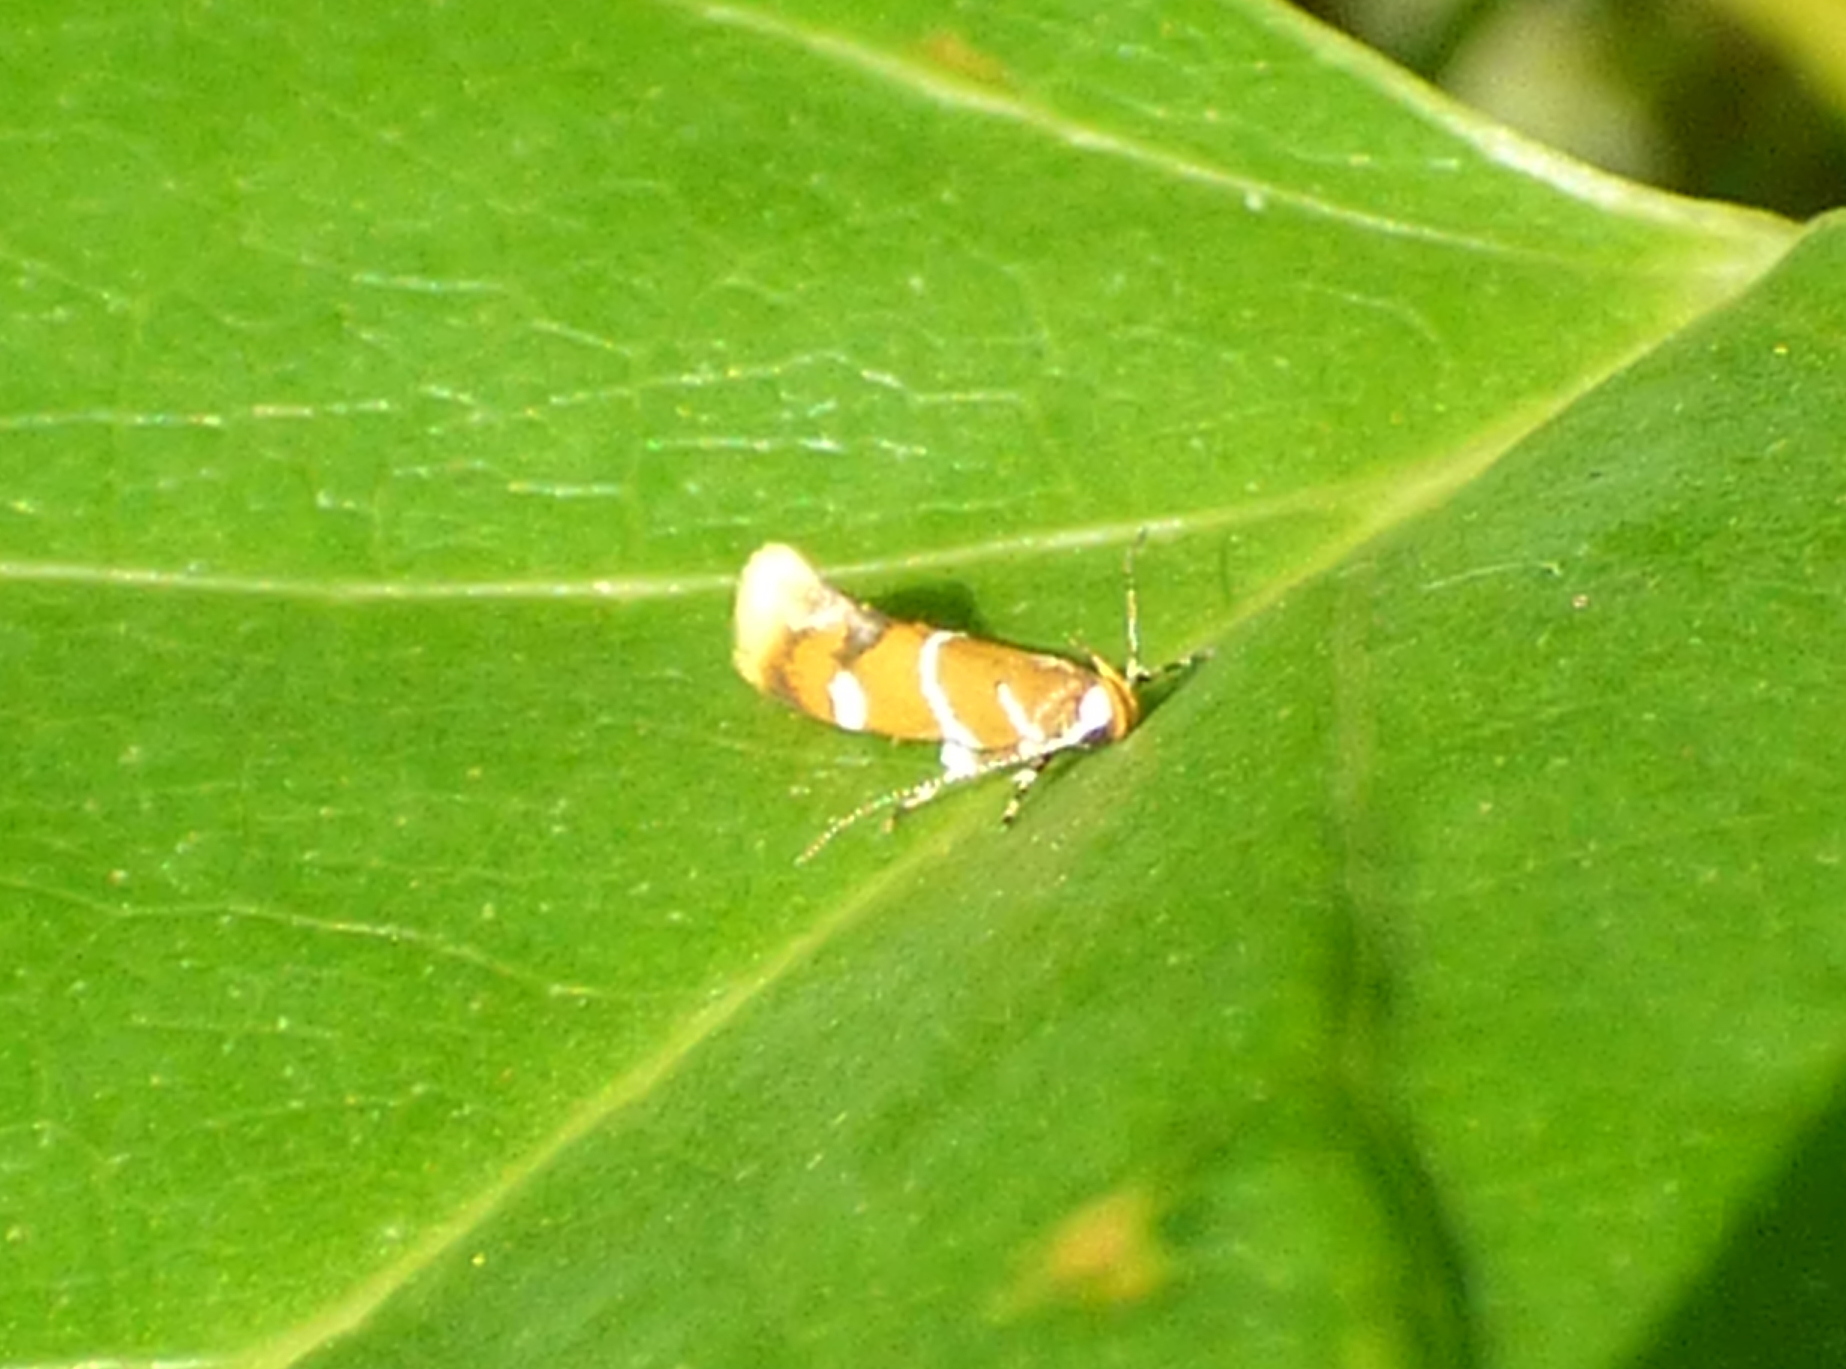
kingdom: Animalia
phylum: Arthropoda
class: Insecta
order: Lepidoptera
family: Oecophoridae
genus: Promalactis
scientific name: Promalactis suzukiella
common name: Moth
